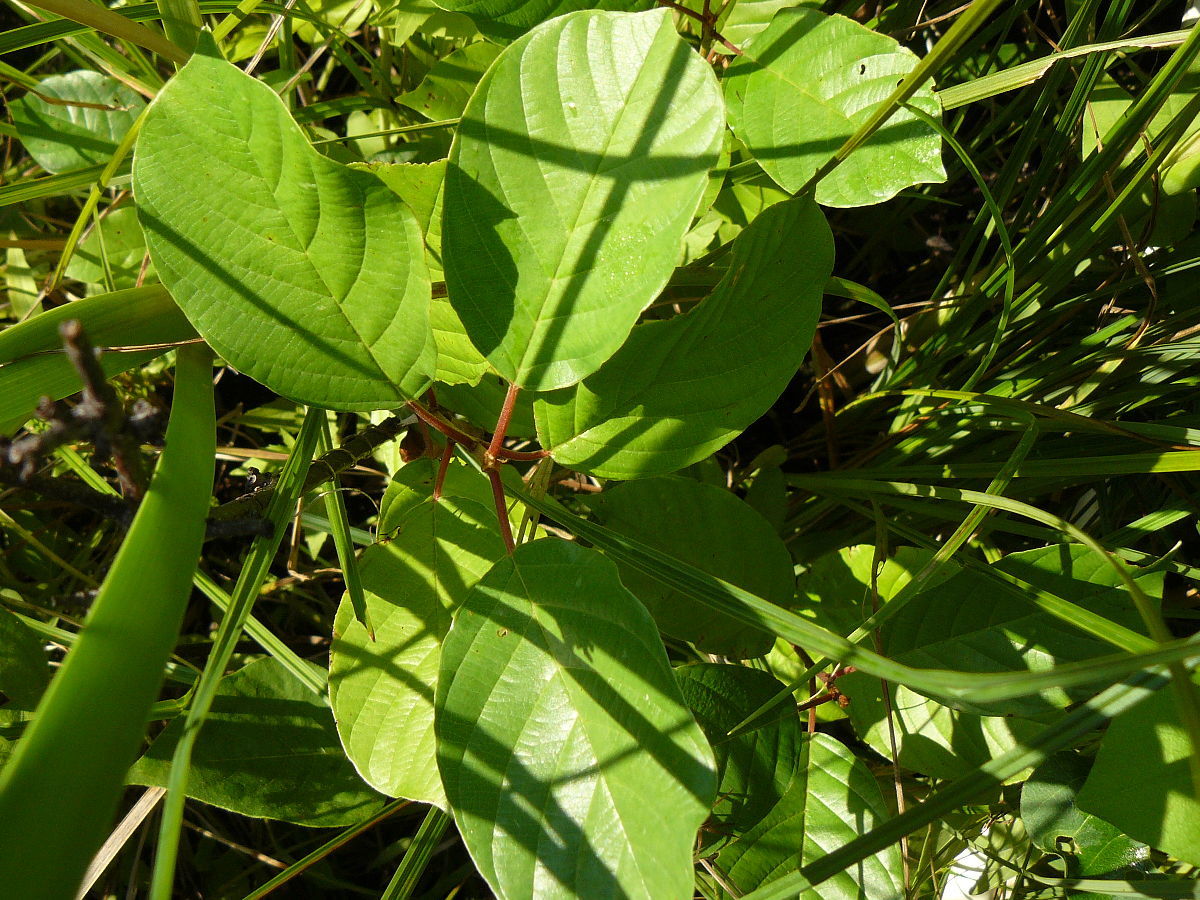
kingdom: Plantae
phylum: Tracheophyta
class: Magnoliopsida
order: Rosales
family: Rhamnaceae
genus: Frangula
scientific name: Frangula alnus
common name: Alder buckthorn
